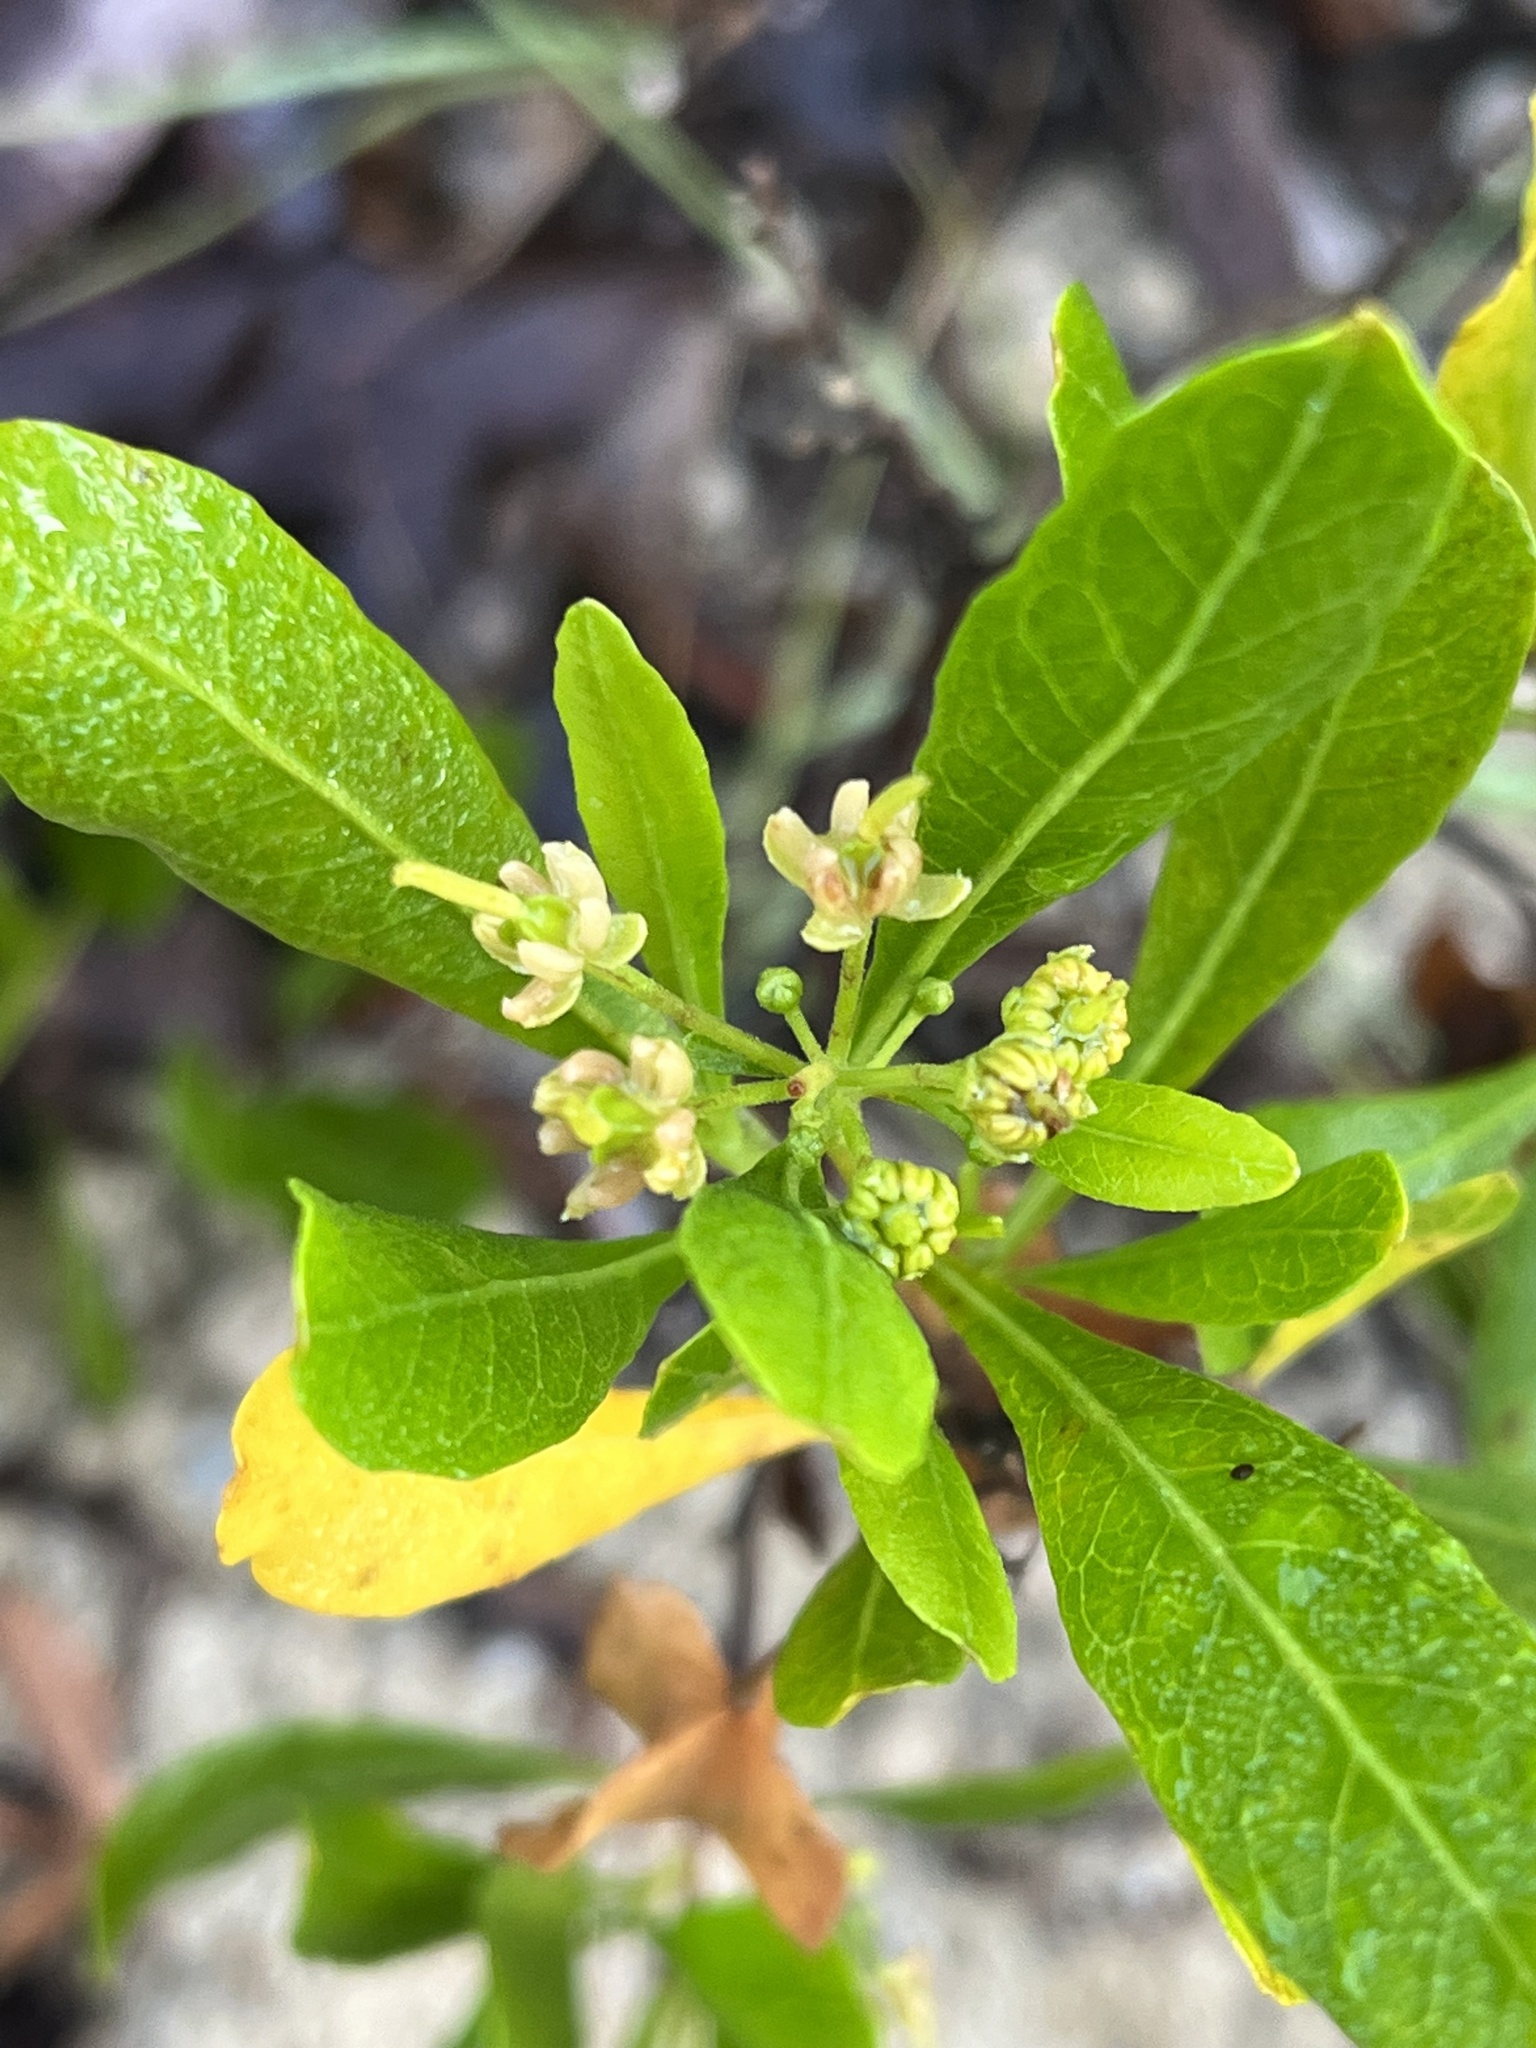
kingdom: Plantae
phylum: Tracheophyta
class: Magnoliopsida
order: Sapindales
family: Sapindaceae
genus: Dodonaea
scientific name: Dodonaea viscosa
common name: Hopbush
